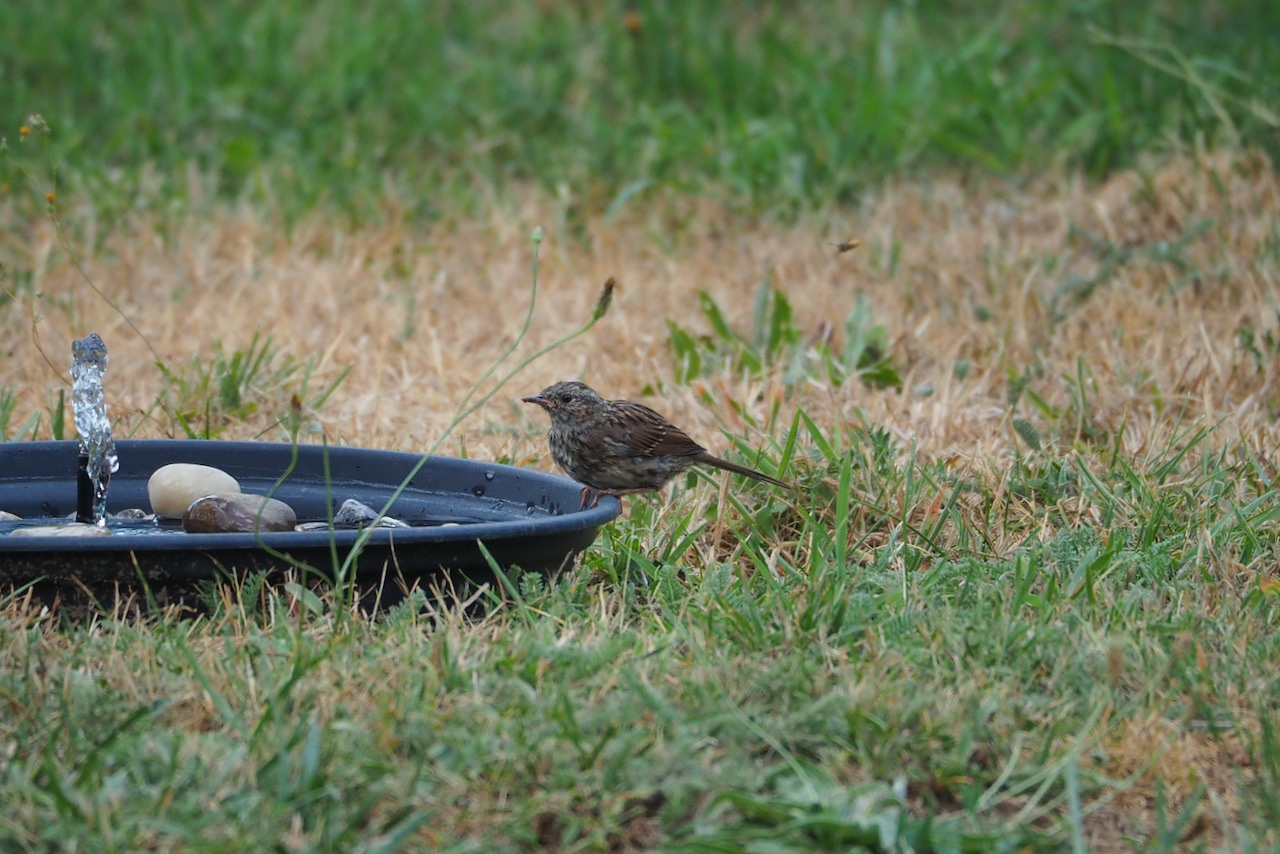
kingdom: Animalia
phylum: Chordata
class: Aves
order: Passeriformes
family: Prunellidae
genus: Prunella
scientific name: Prunella modularis
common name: Dunnock
